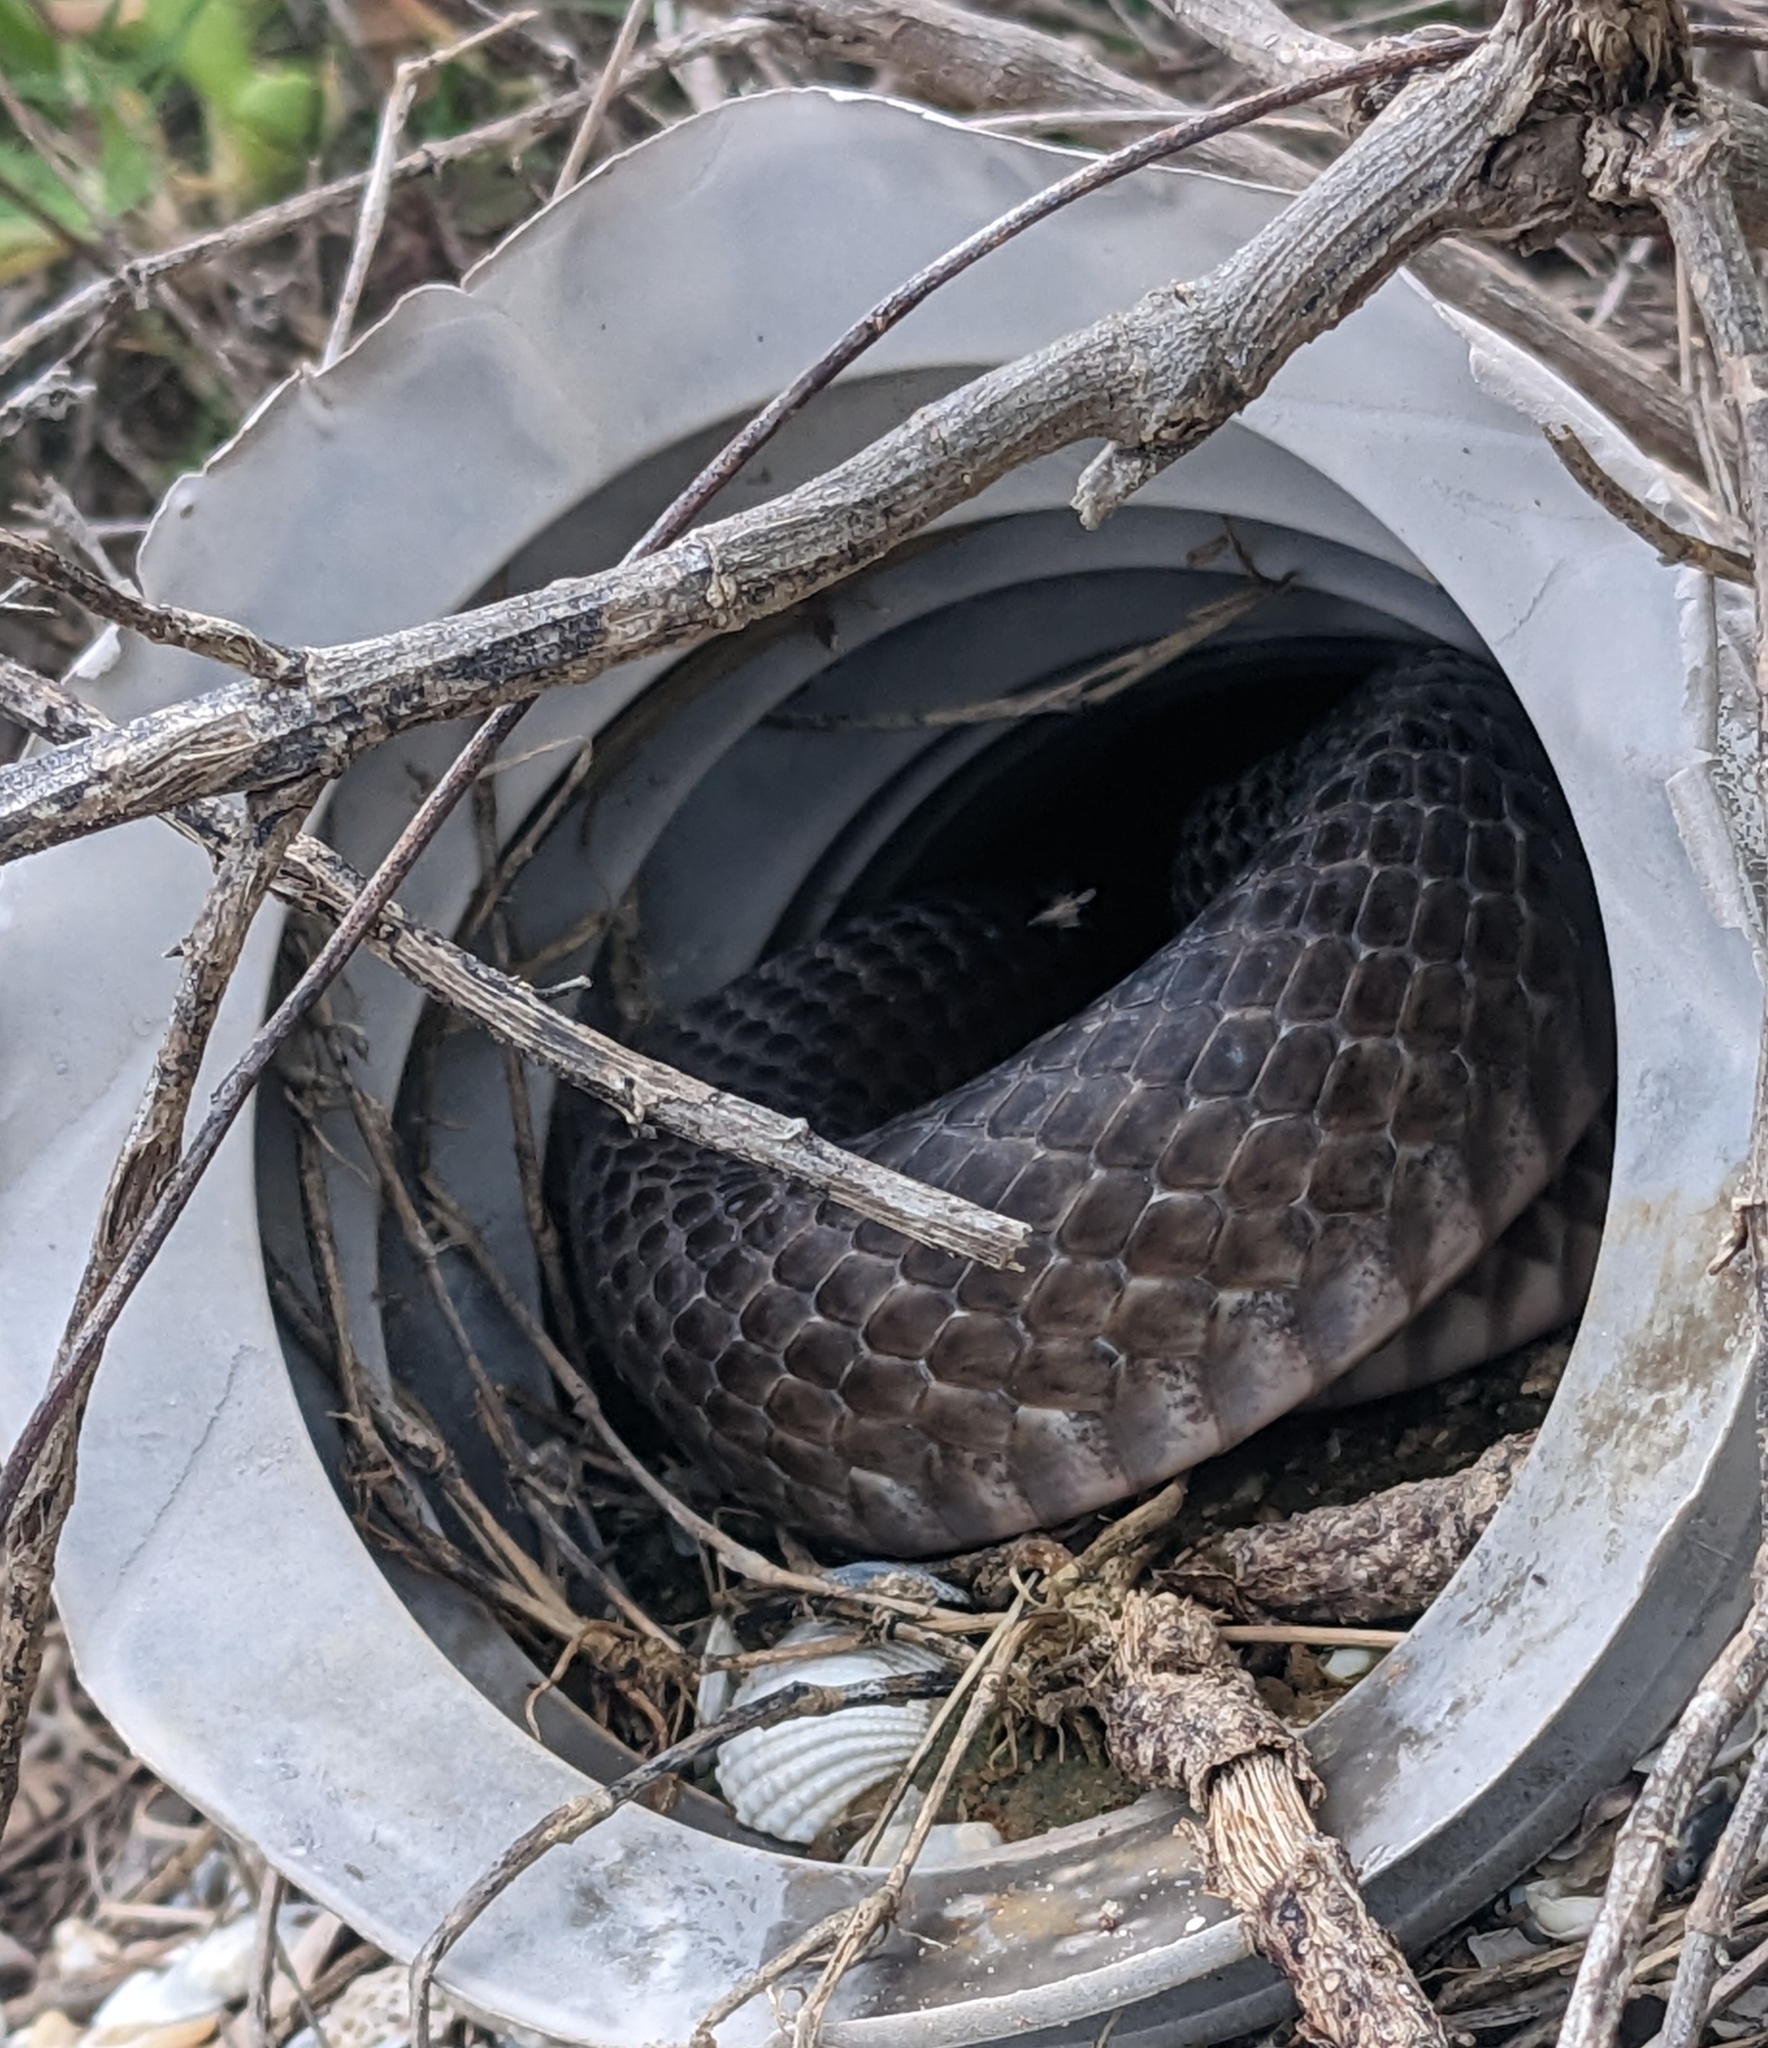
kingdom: Animalia
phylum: Chordata
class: Squamata
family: Colubridae
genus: Masticophis
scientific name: Masticophis flagellum
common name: Coachwhip
